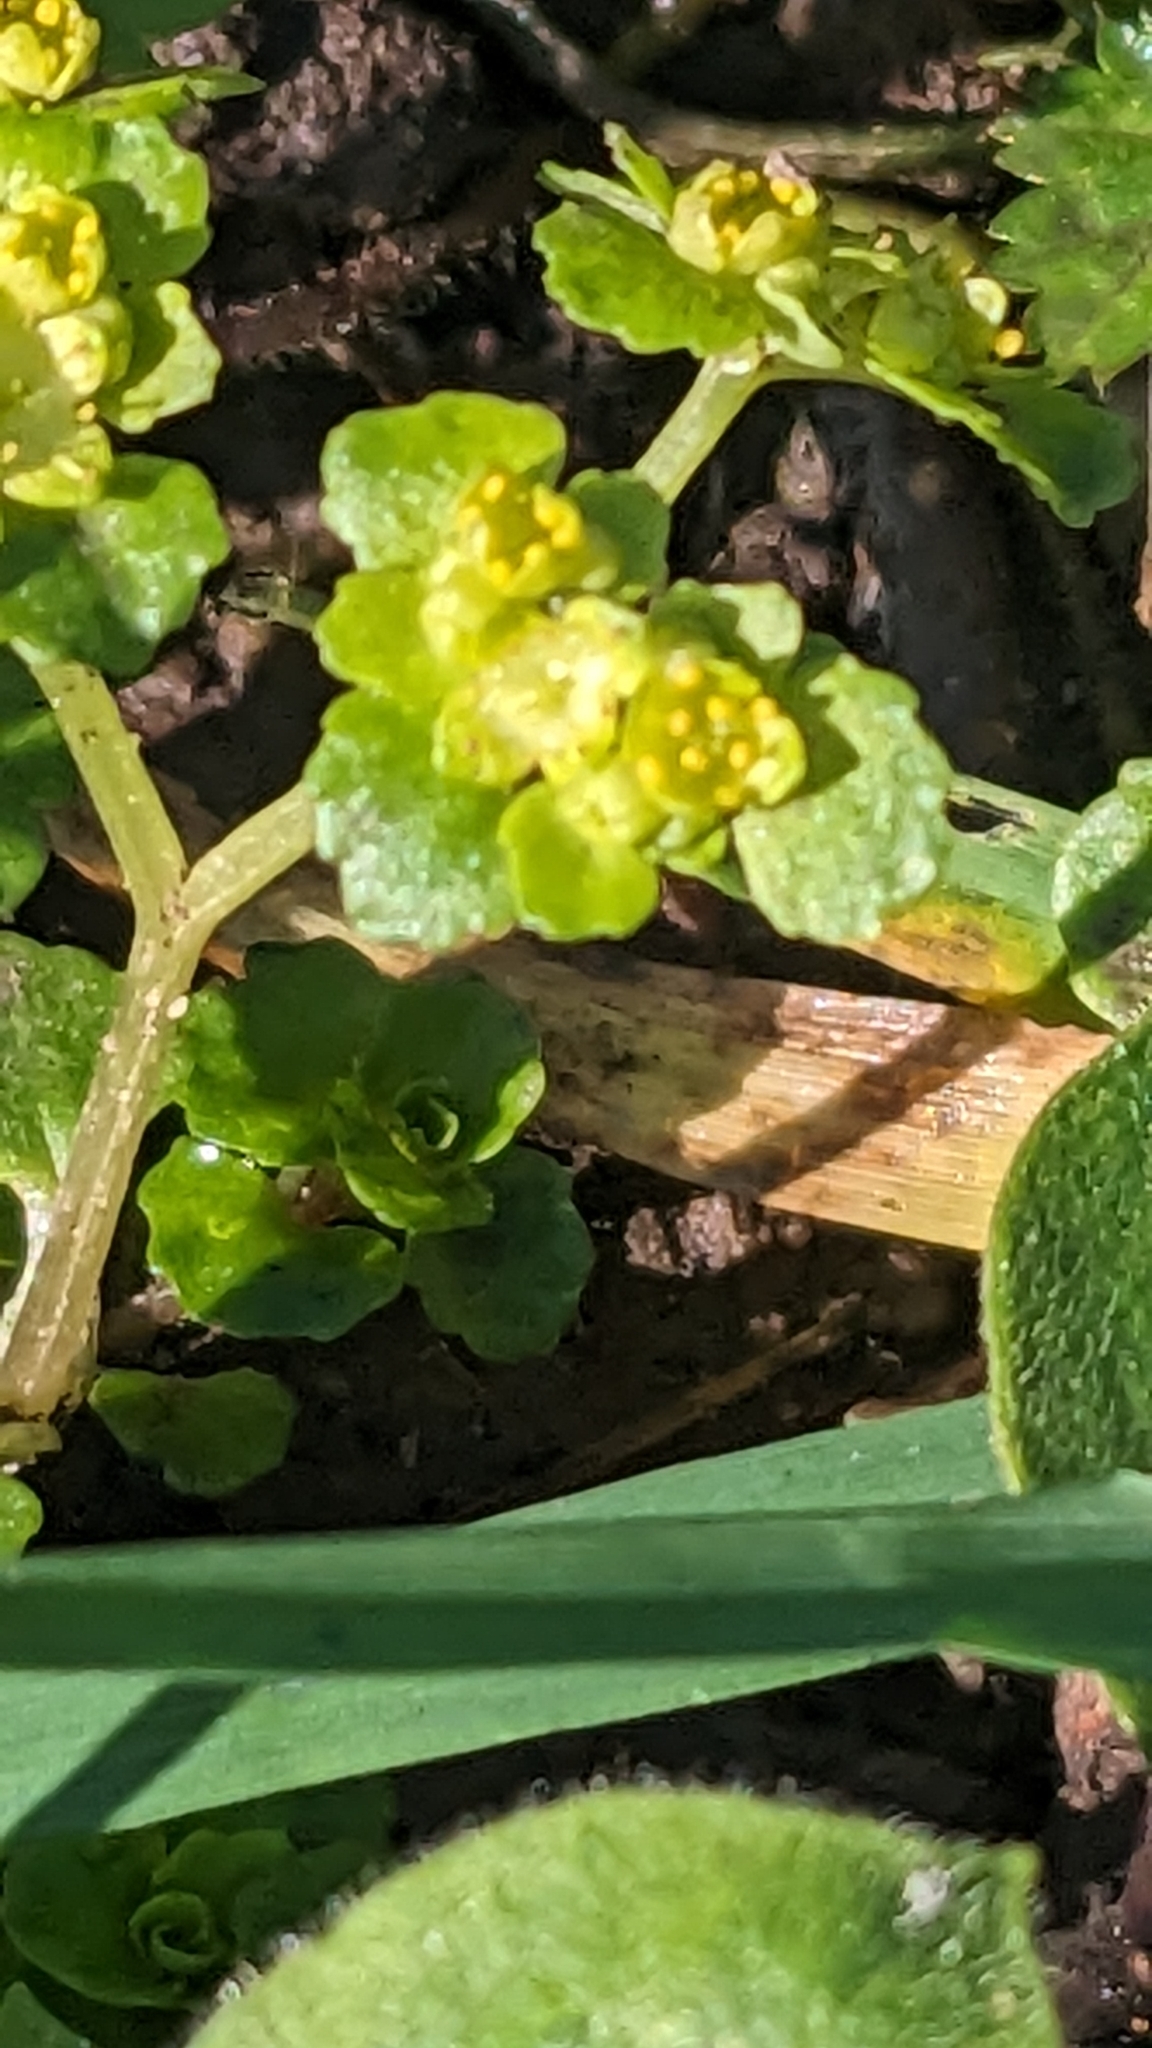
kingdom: Plantae
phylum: Tracheophyta
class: Magnoliopsida
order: Saxifragales
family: Saxifragaceae
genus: Chrysosplenium
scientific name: Chrysosplenium oppositifolium
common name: Opposite-leaved golden-saxifrage
